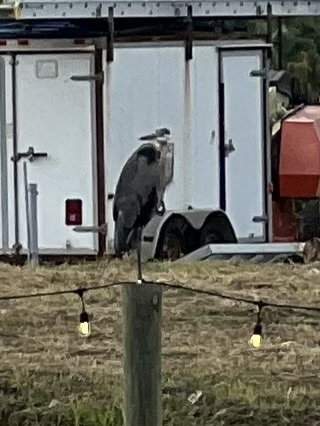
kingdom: Animalia
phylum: Chordata
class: Aves
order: Pelecaniformes
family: Ardeidae
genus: Ardea
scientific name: Ardea herodias
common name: Great blue heron
